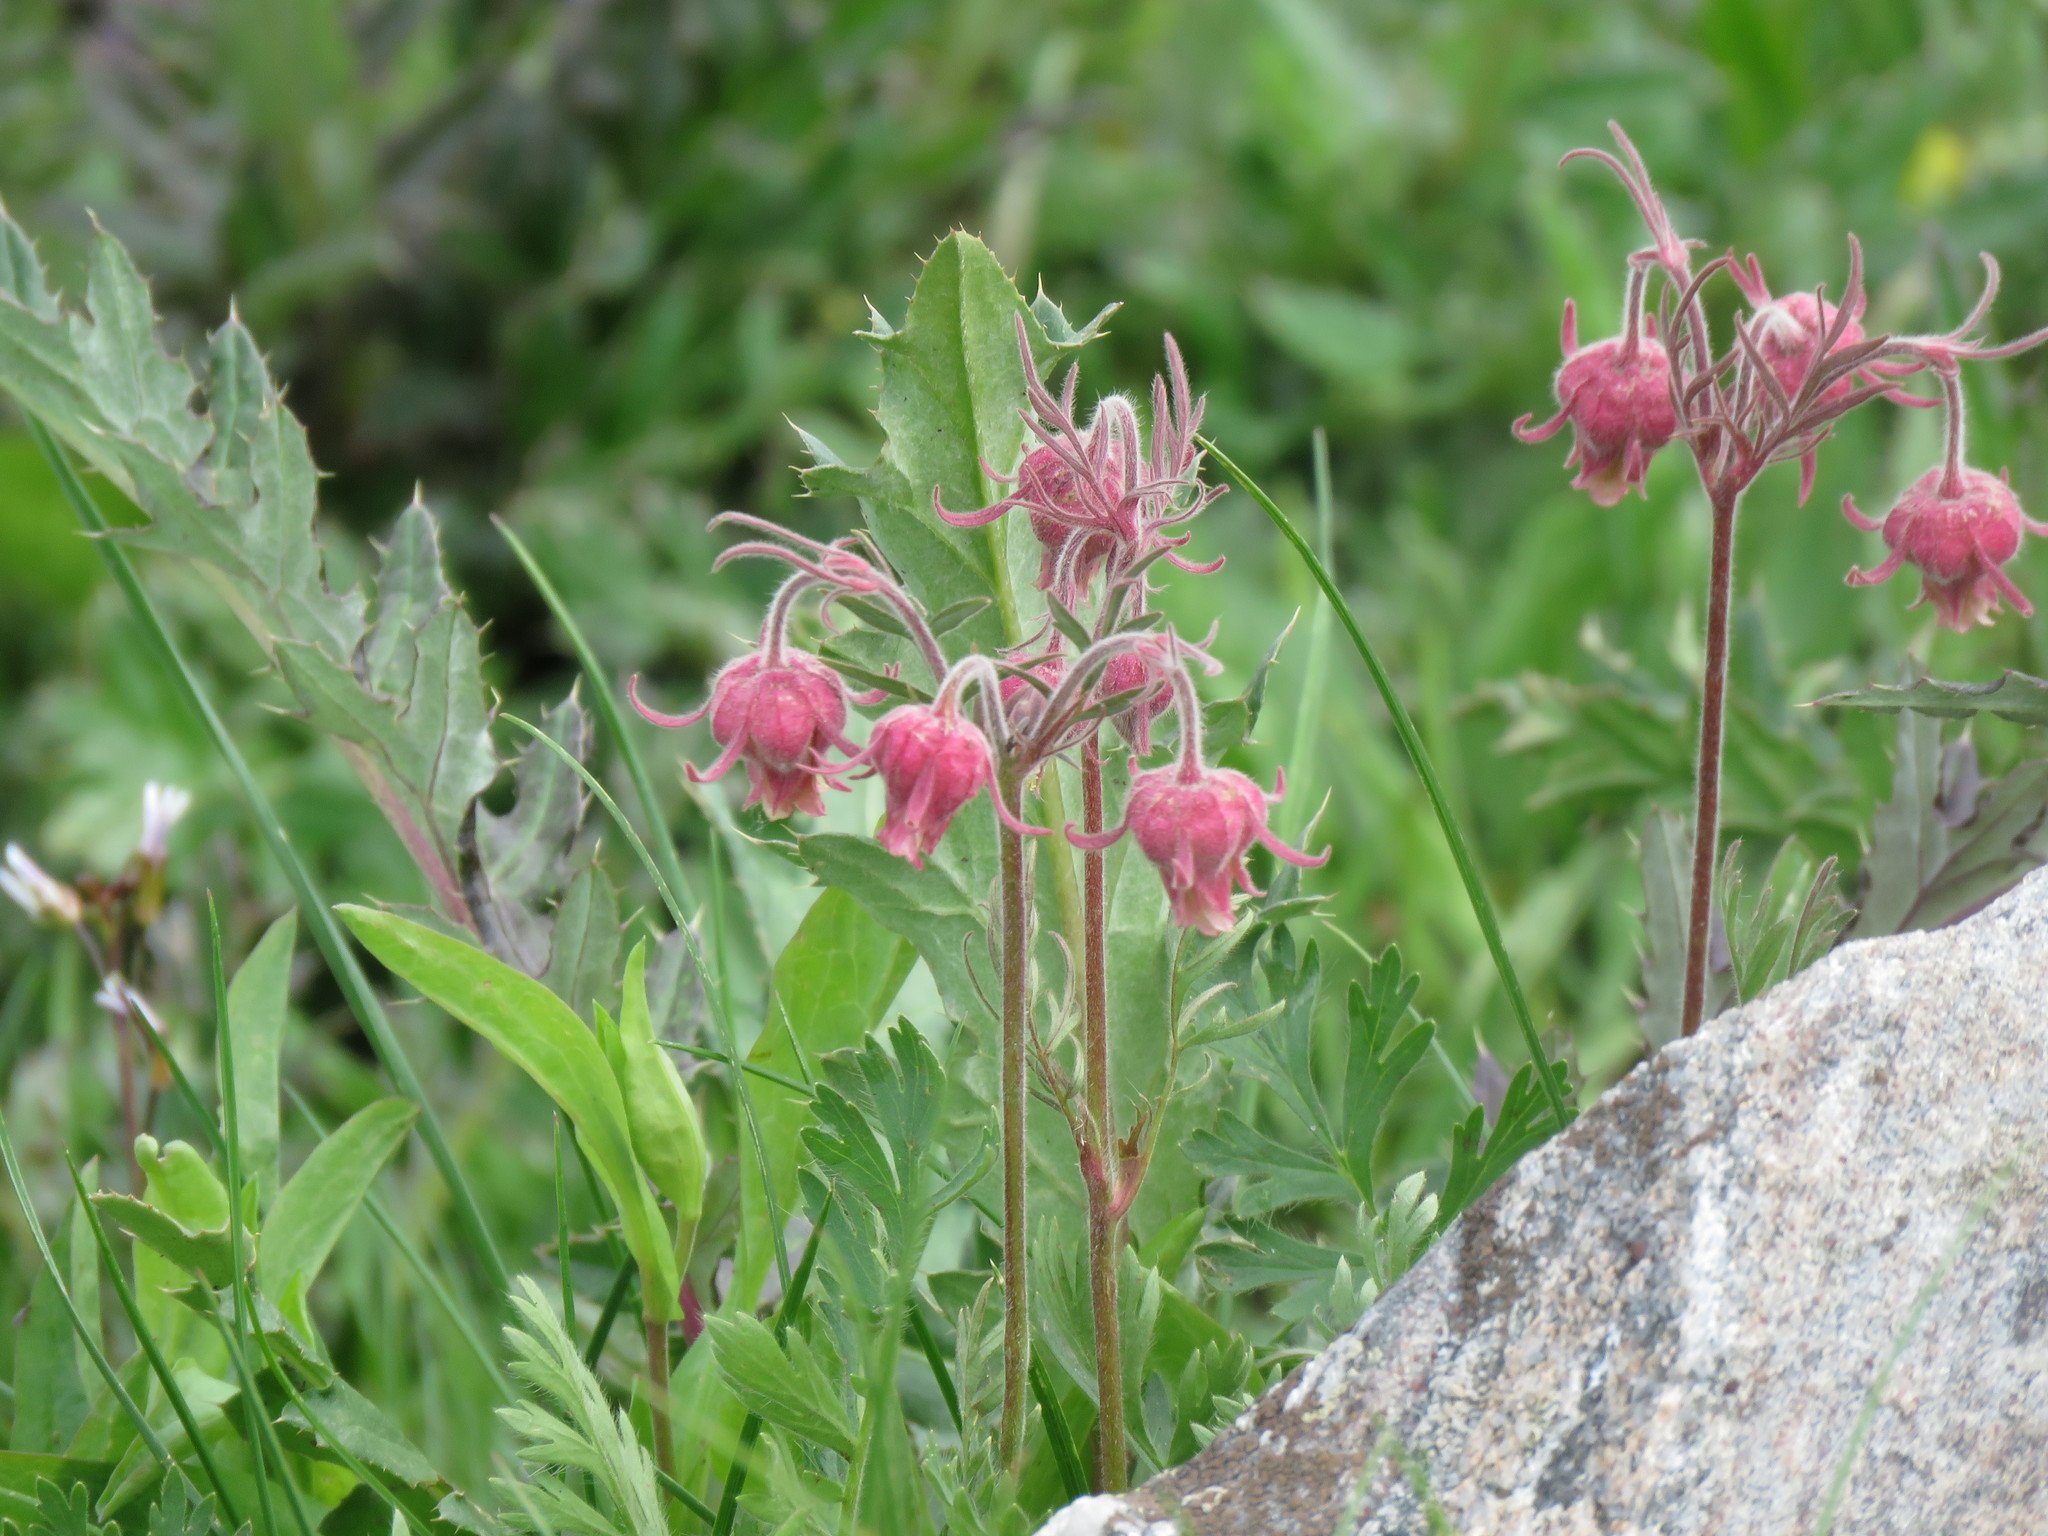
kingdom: Plantae
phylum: Tracheophyta
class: Magnoliopsida
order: Rosales
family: Rosaceae
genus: Geum
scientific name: Geum triflorum
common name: Old man's whiskers
